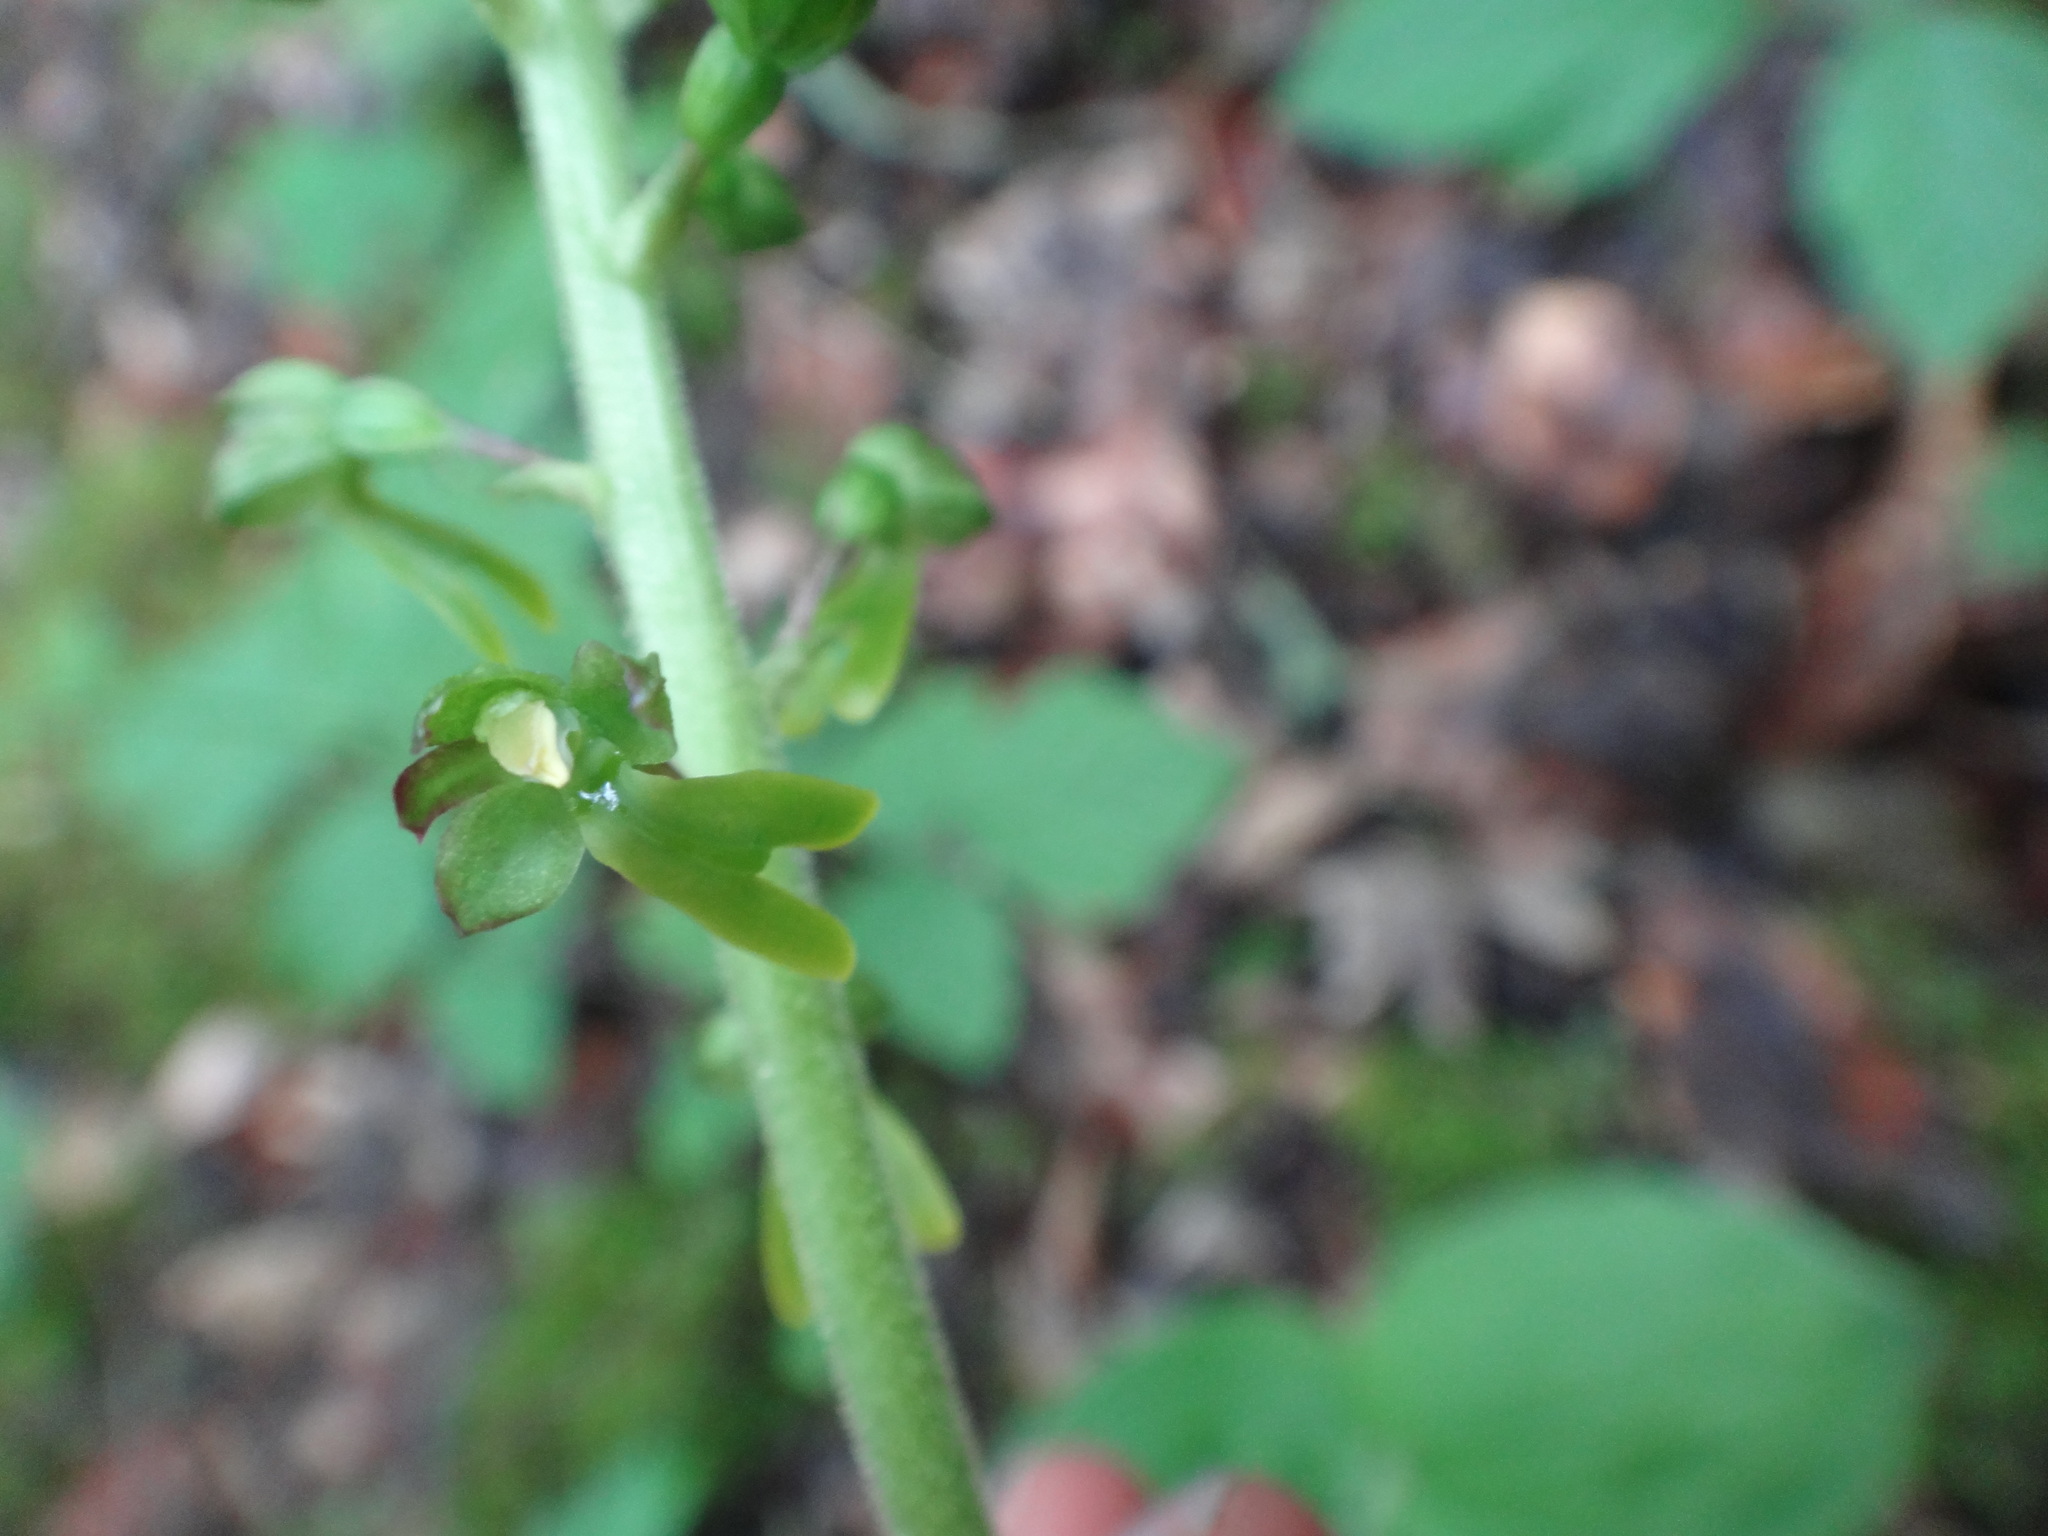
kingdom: Plantae
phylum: Tracheophyta
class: Liliopsida
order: Asparagales
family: Orchidaceae
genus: Neottia
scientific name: Neottia ovata
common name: Common twayblade
